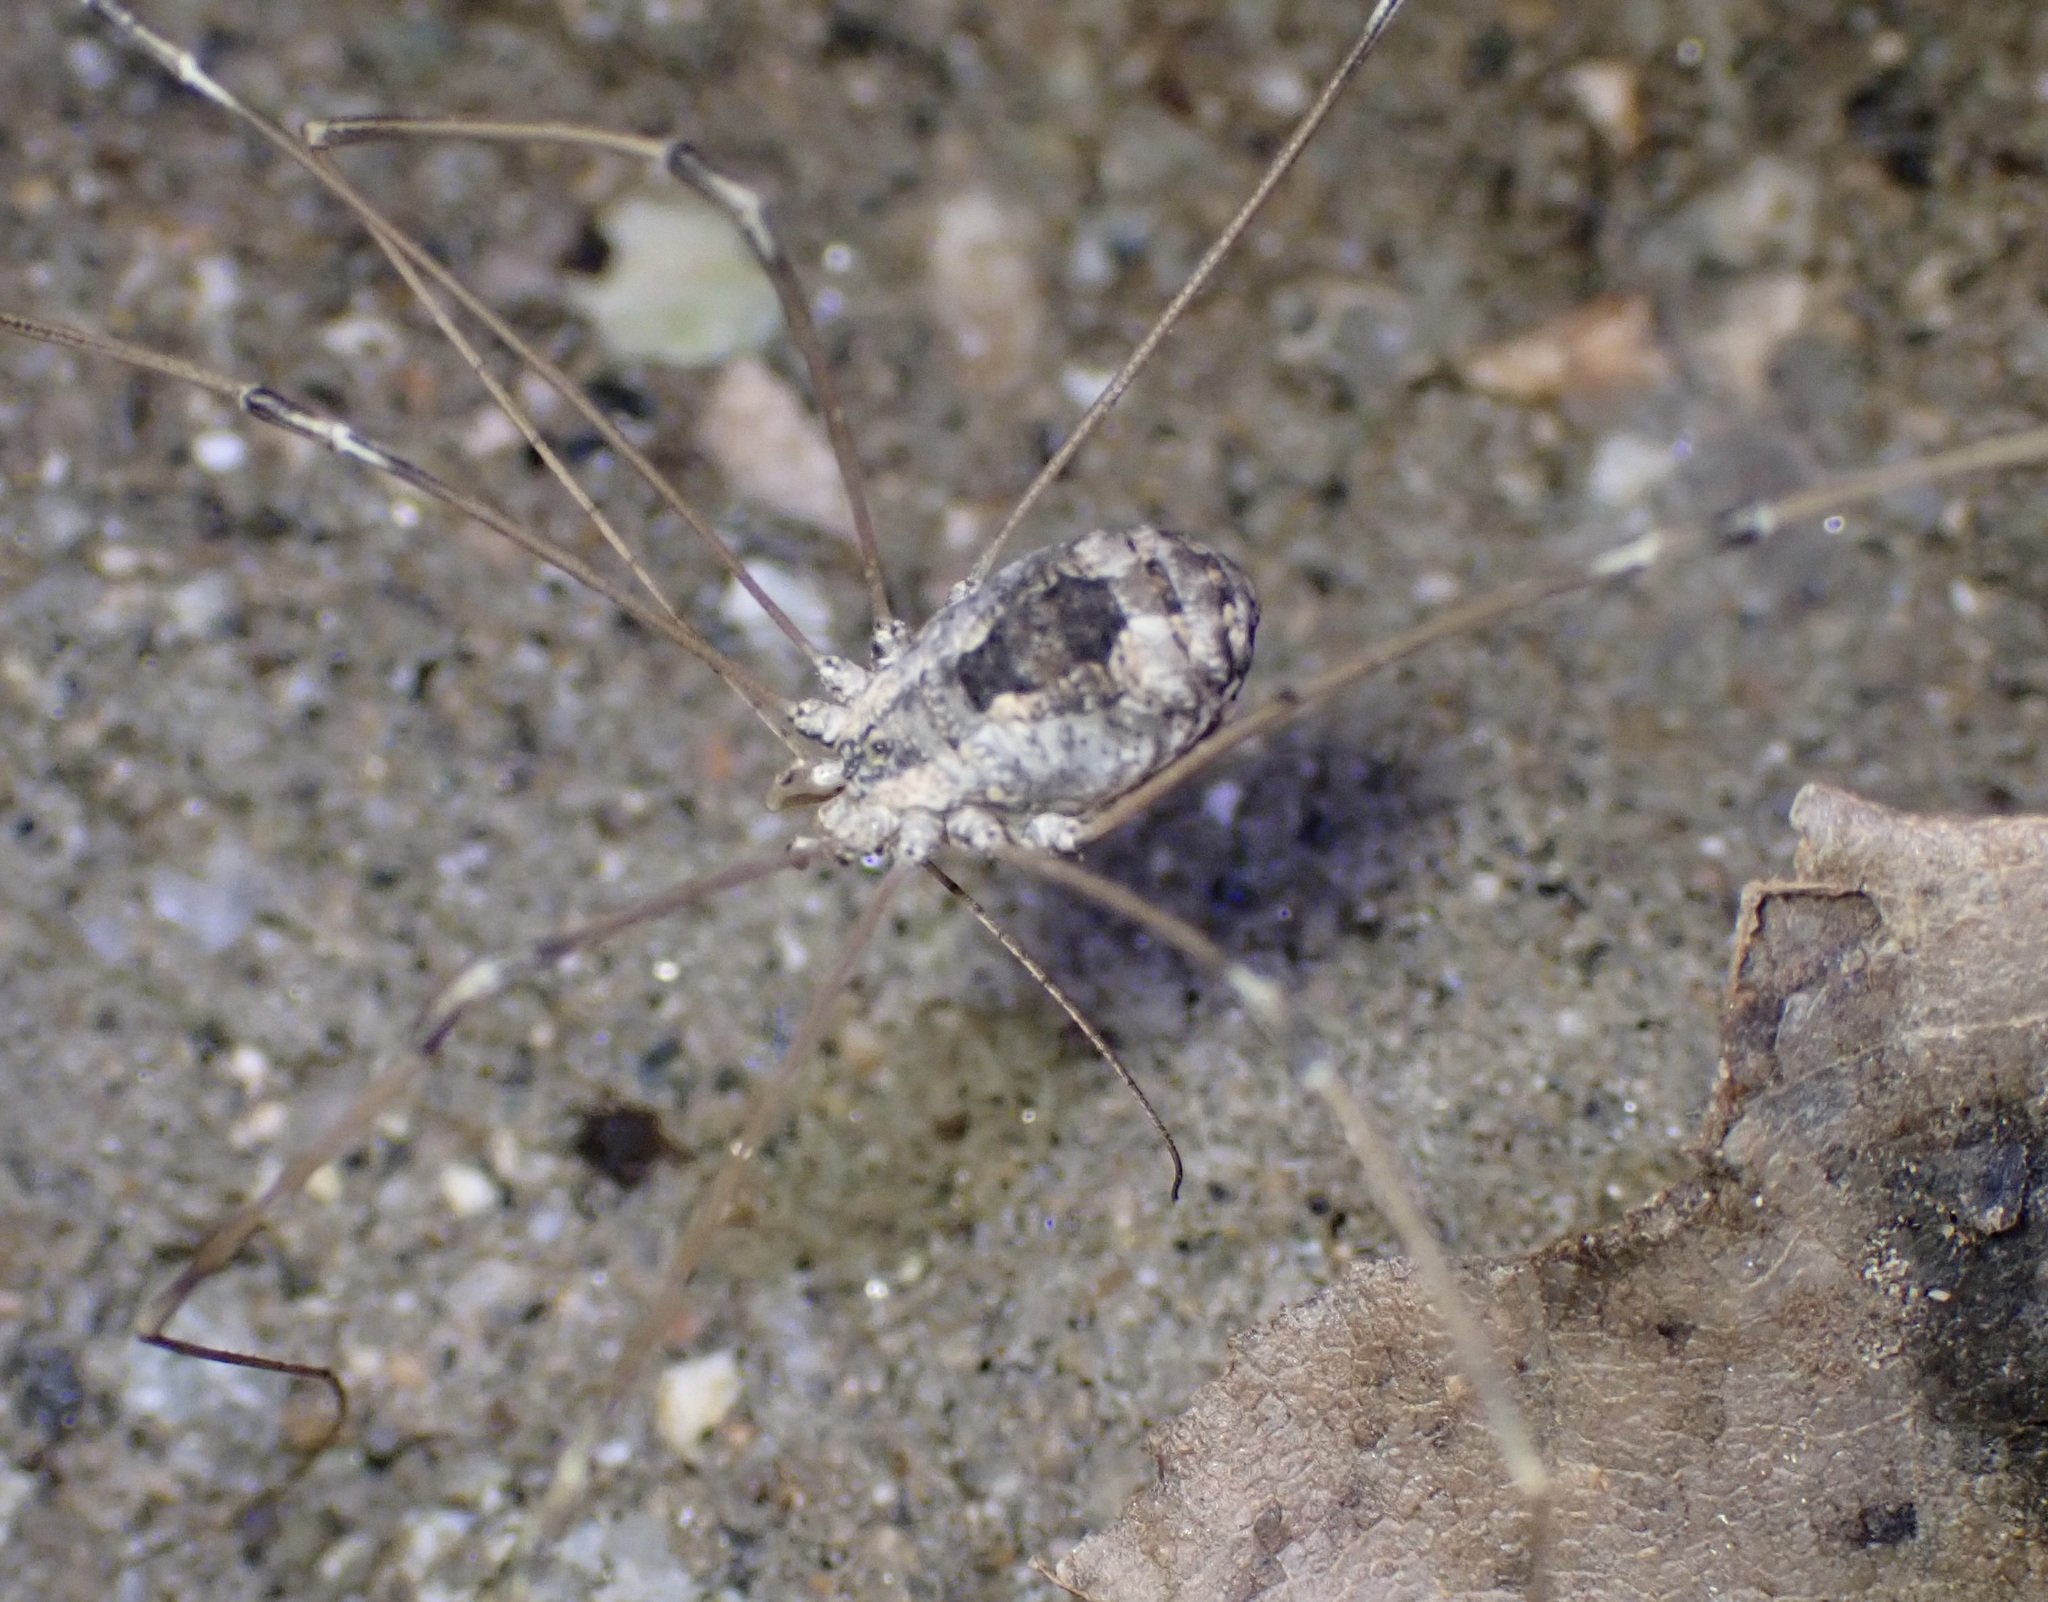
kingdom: Animalia
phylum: Arthropoda
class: Arachnida
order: Opiliones
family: Sclerosomatidae
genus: Leuronychus
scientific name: Leuronychus pacificus
